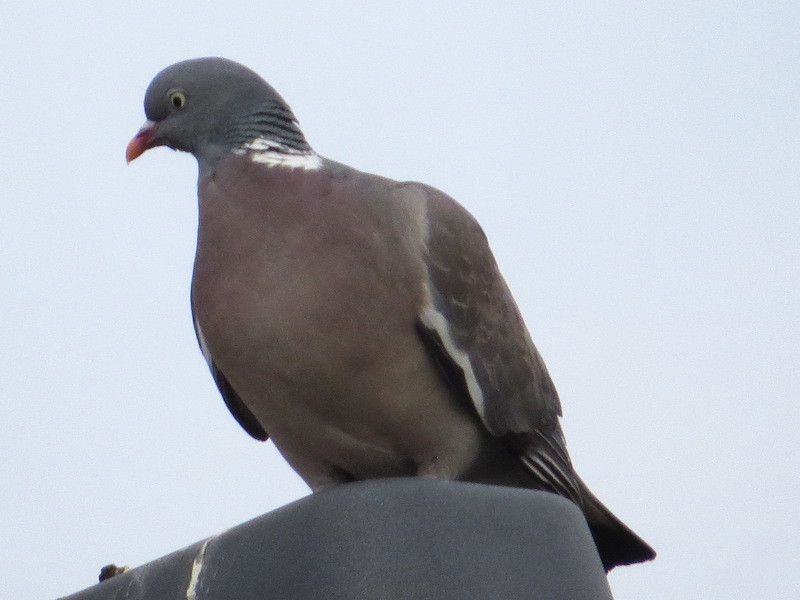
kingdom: Animalia
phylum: Chordata
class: Aves
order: Columbiformes
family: Columbidae
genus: Columba
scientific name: Columba palumbus
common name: Common wood pigeon
